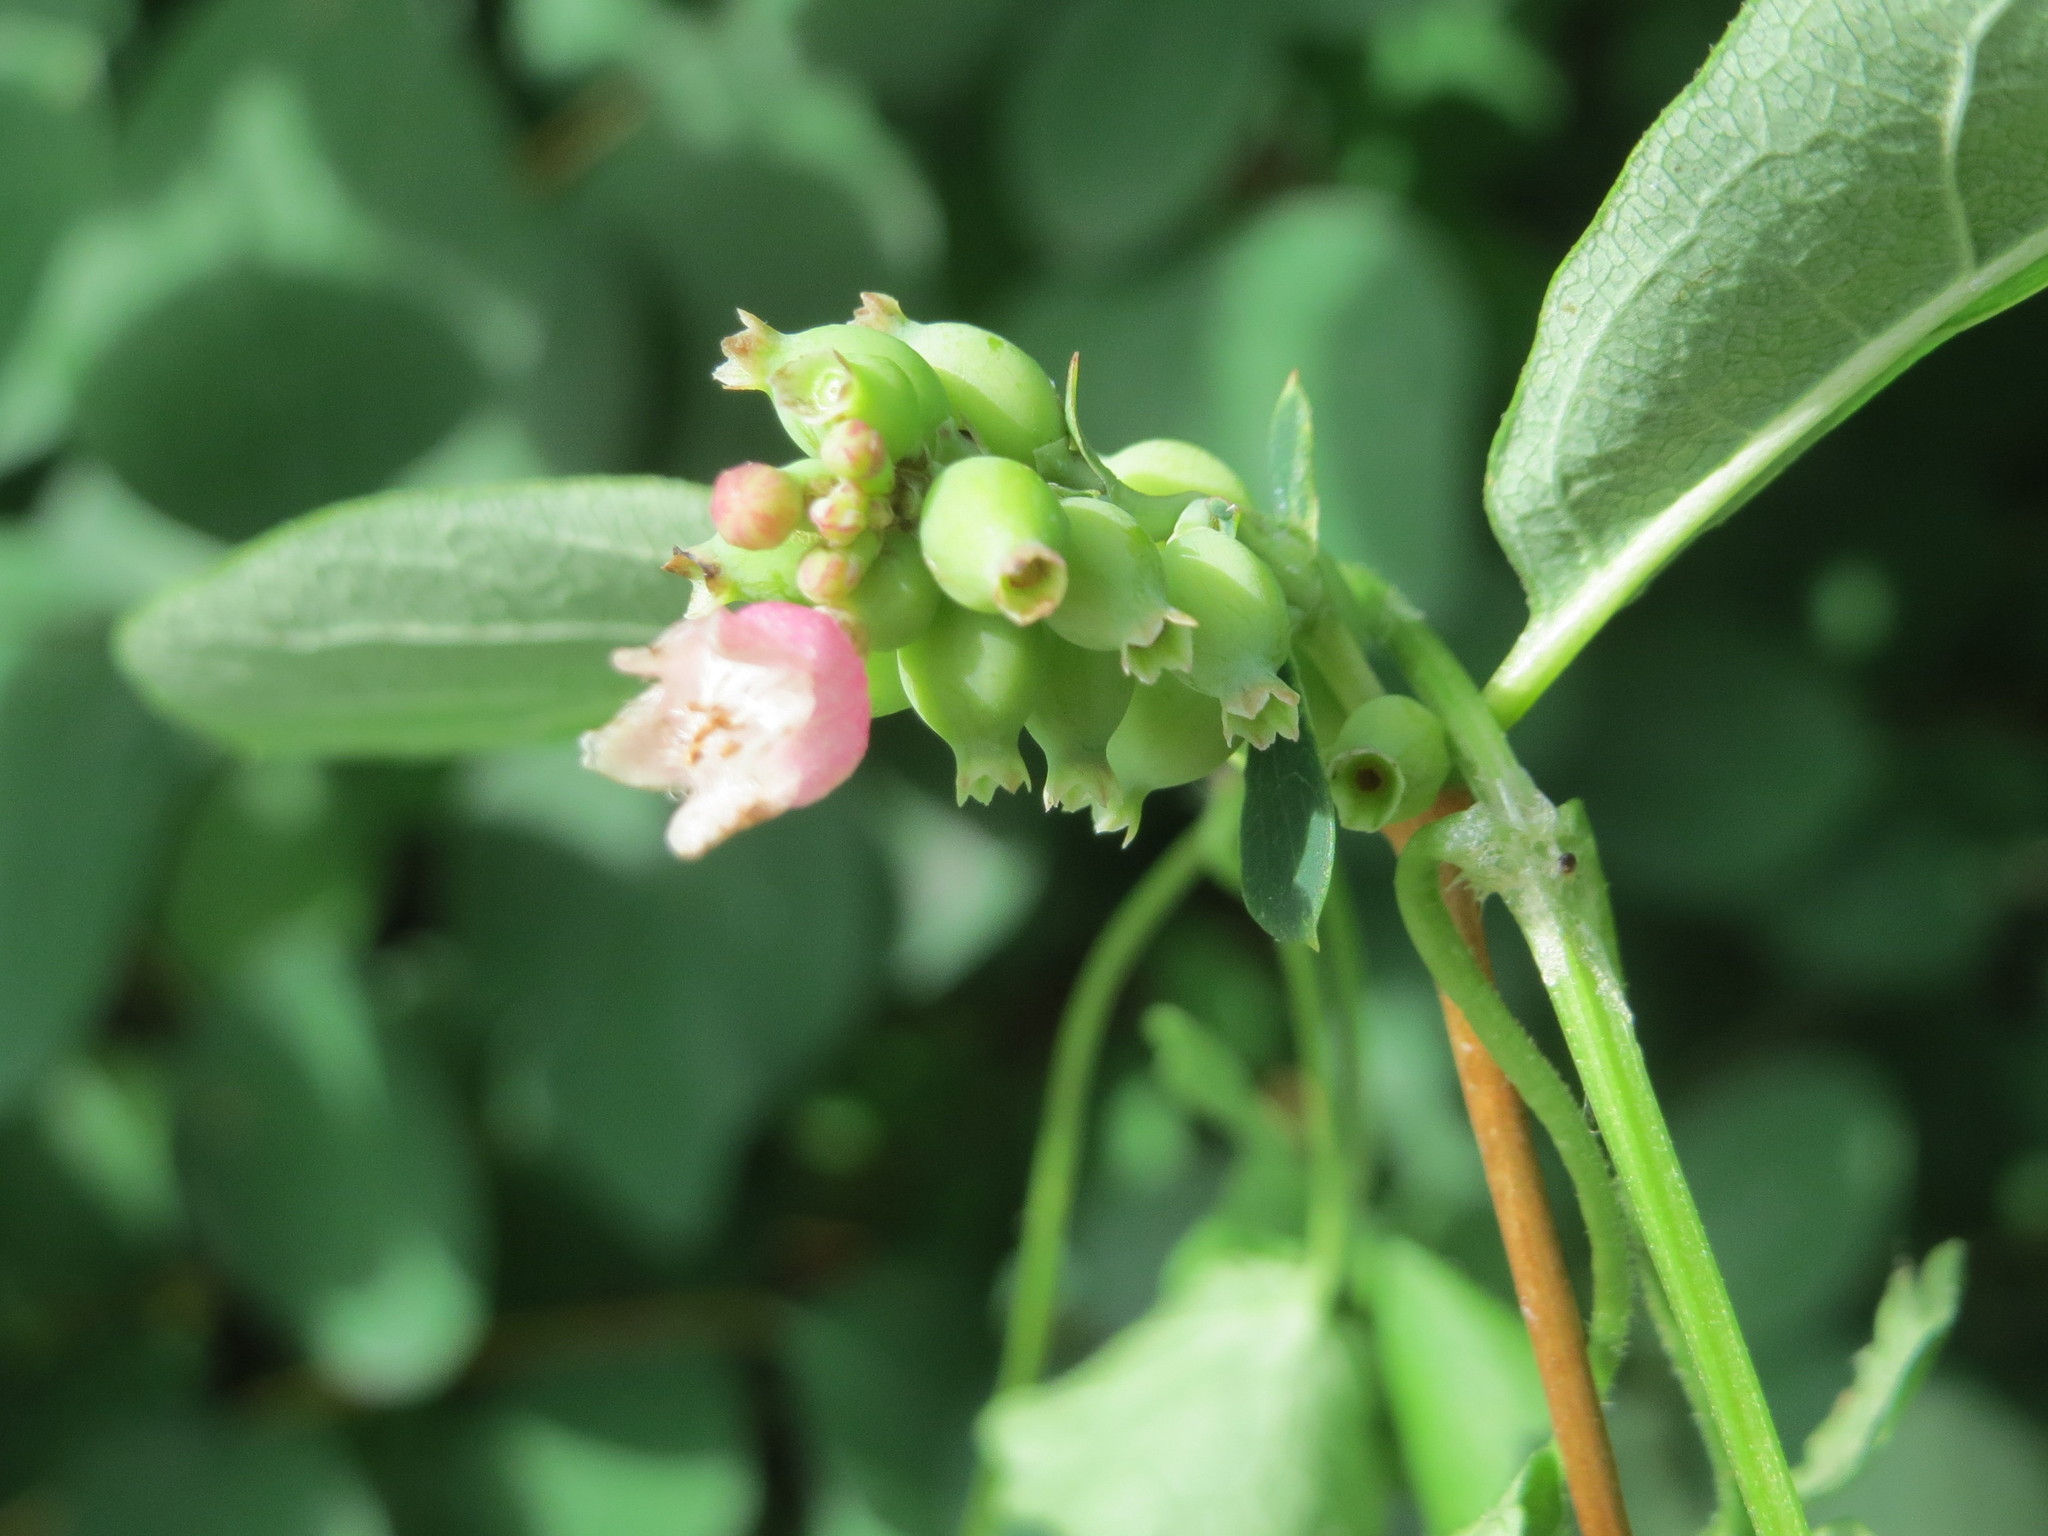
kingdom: Plantae
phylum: Tracheophyta
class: Magnoliopsida
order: Dipsacales
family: Caprifoliaceae
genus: Symphoricarpos
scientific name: Symphoricarpos albus
